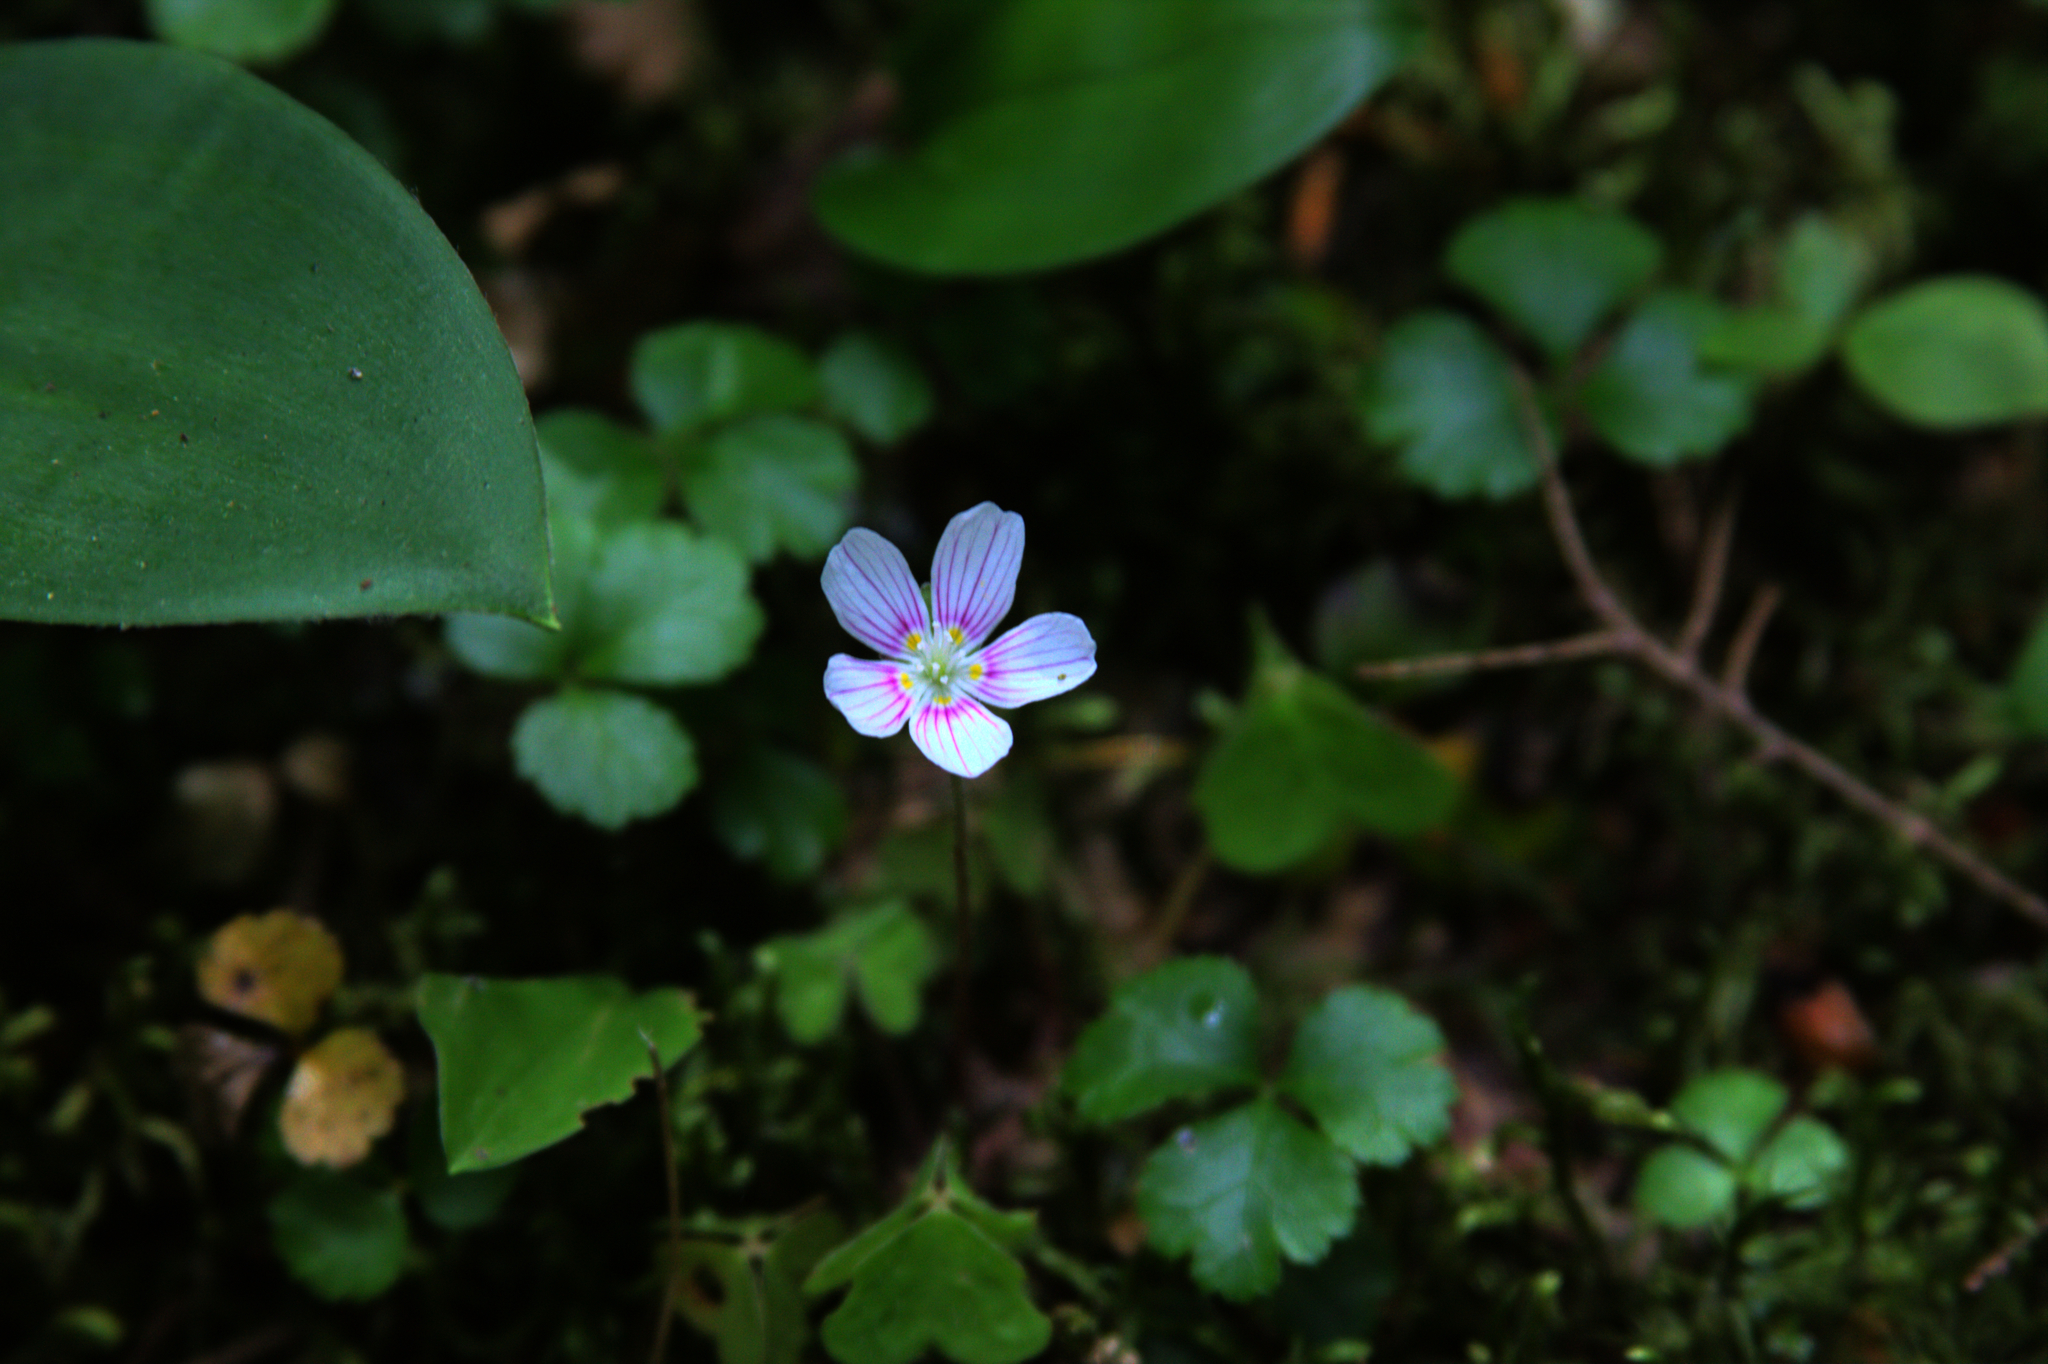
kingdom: Plantae
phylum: Tracheophyta
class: Magnoliopsida
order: Oxalidales
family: Oxalidaceae
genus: Oxalis
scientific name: Oxalis montana
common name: American wood-sorrel
